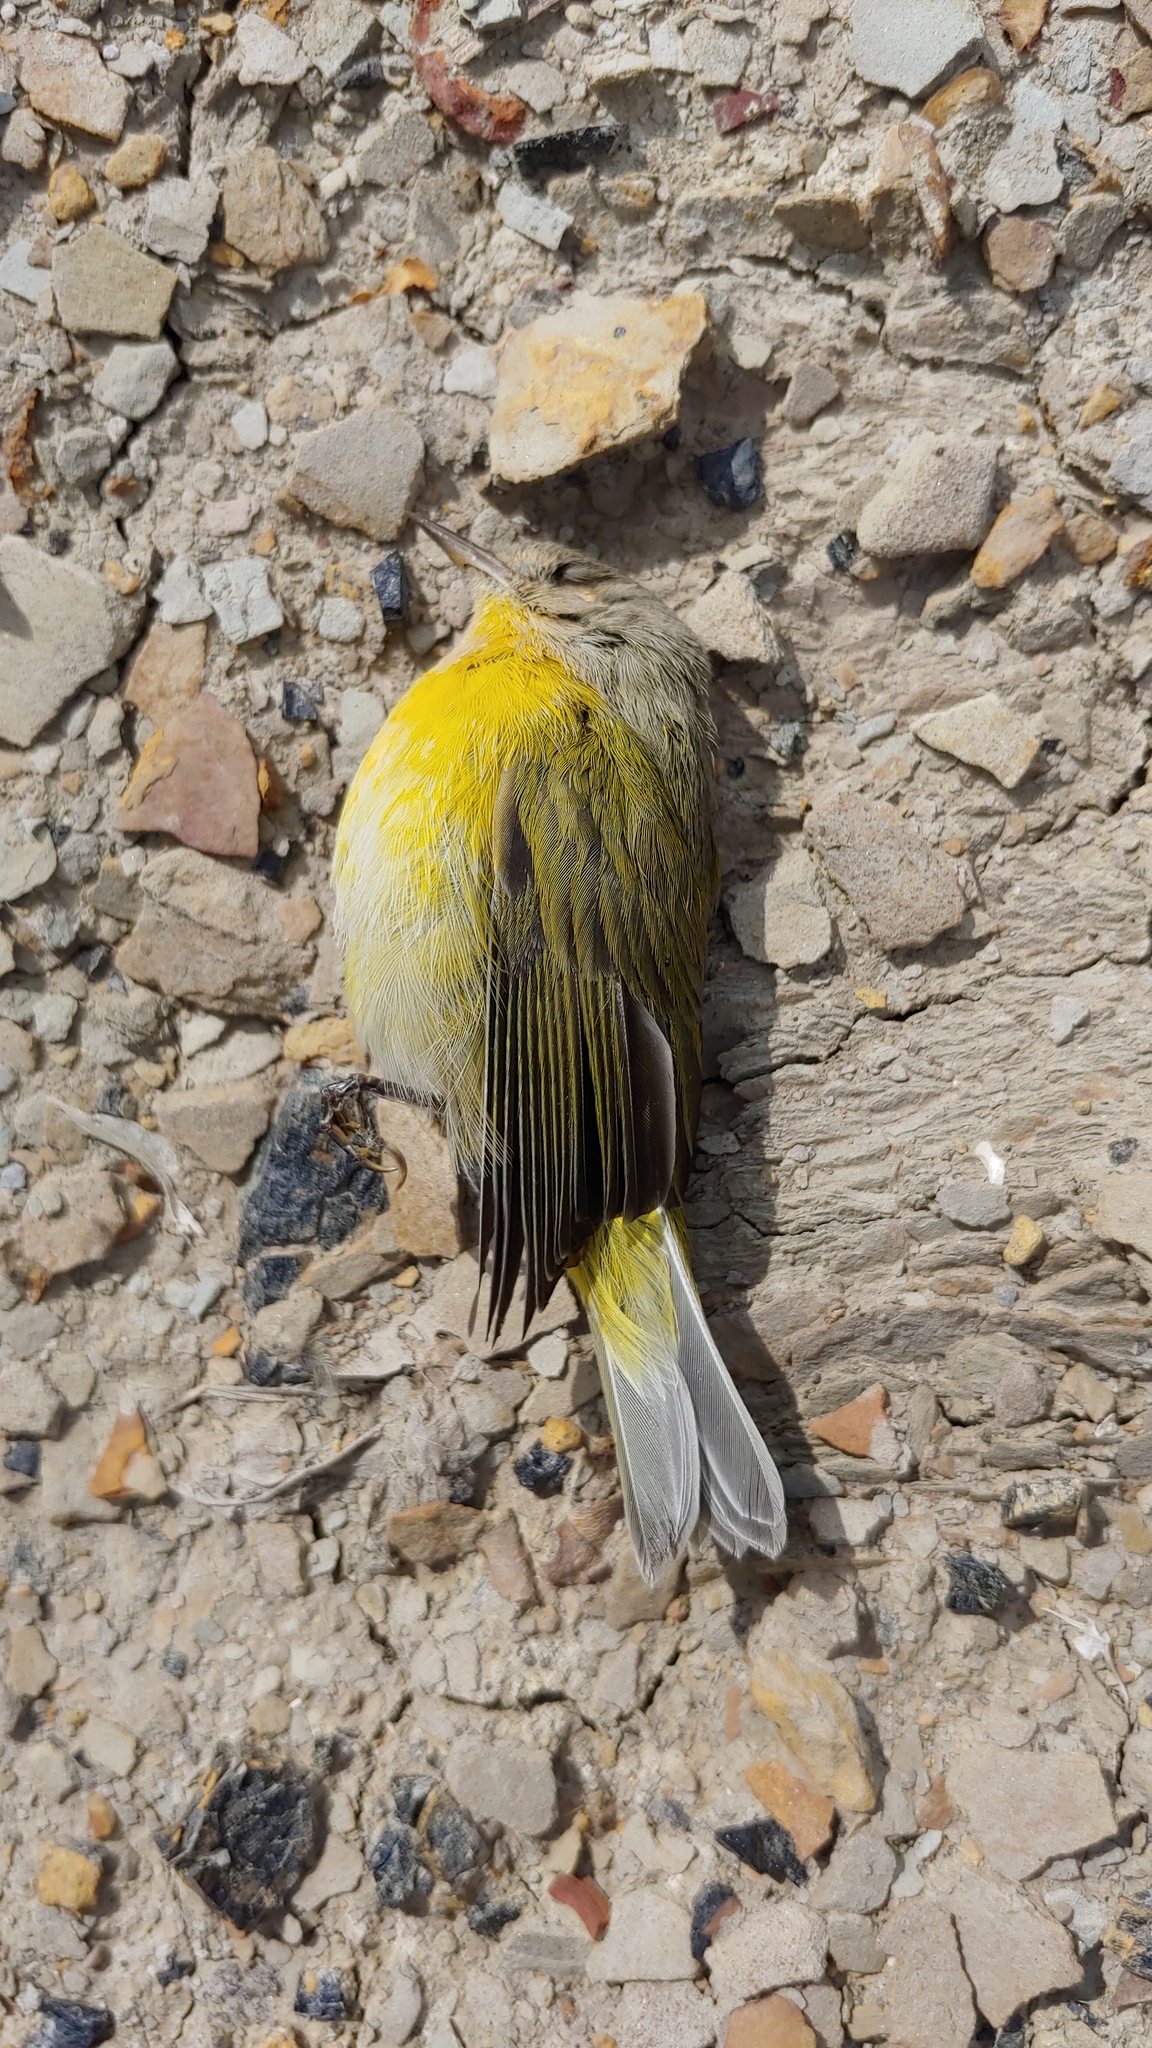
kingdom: Animalia
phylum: Chordata
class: Aves
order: Passeriformes
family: Parulidae
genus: Leiothlypis
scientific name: Leiothlypis ruficapilla
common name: Nashville warbler
